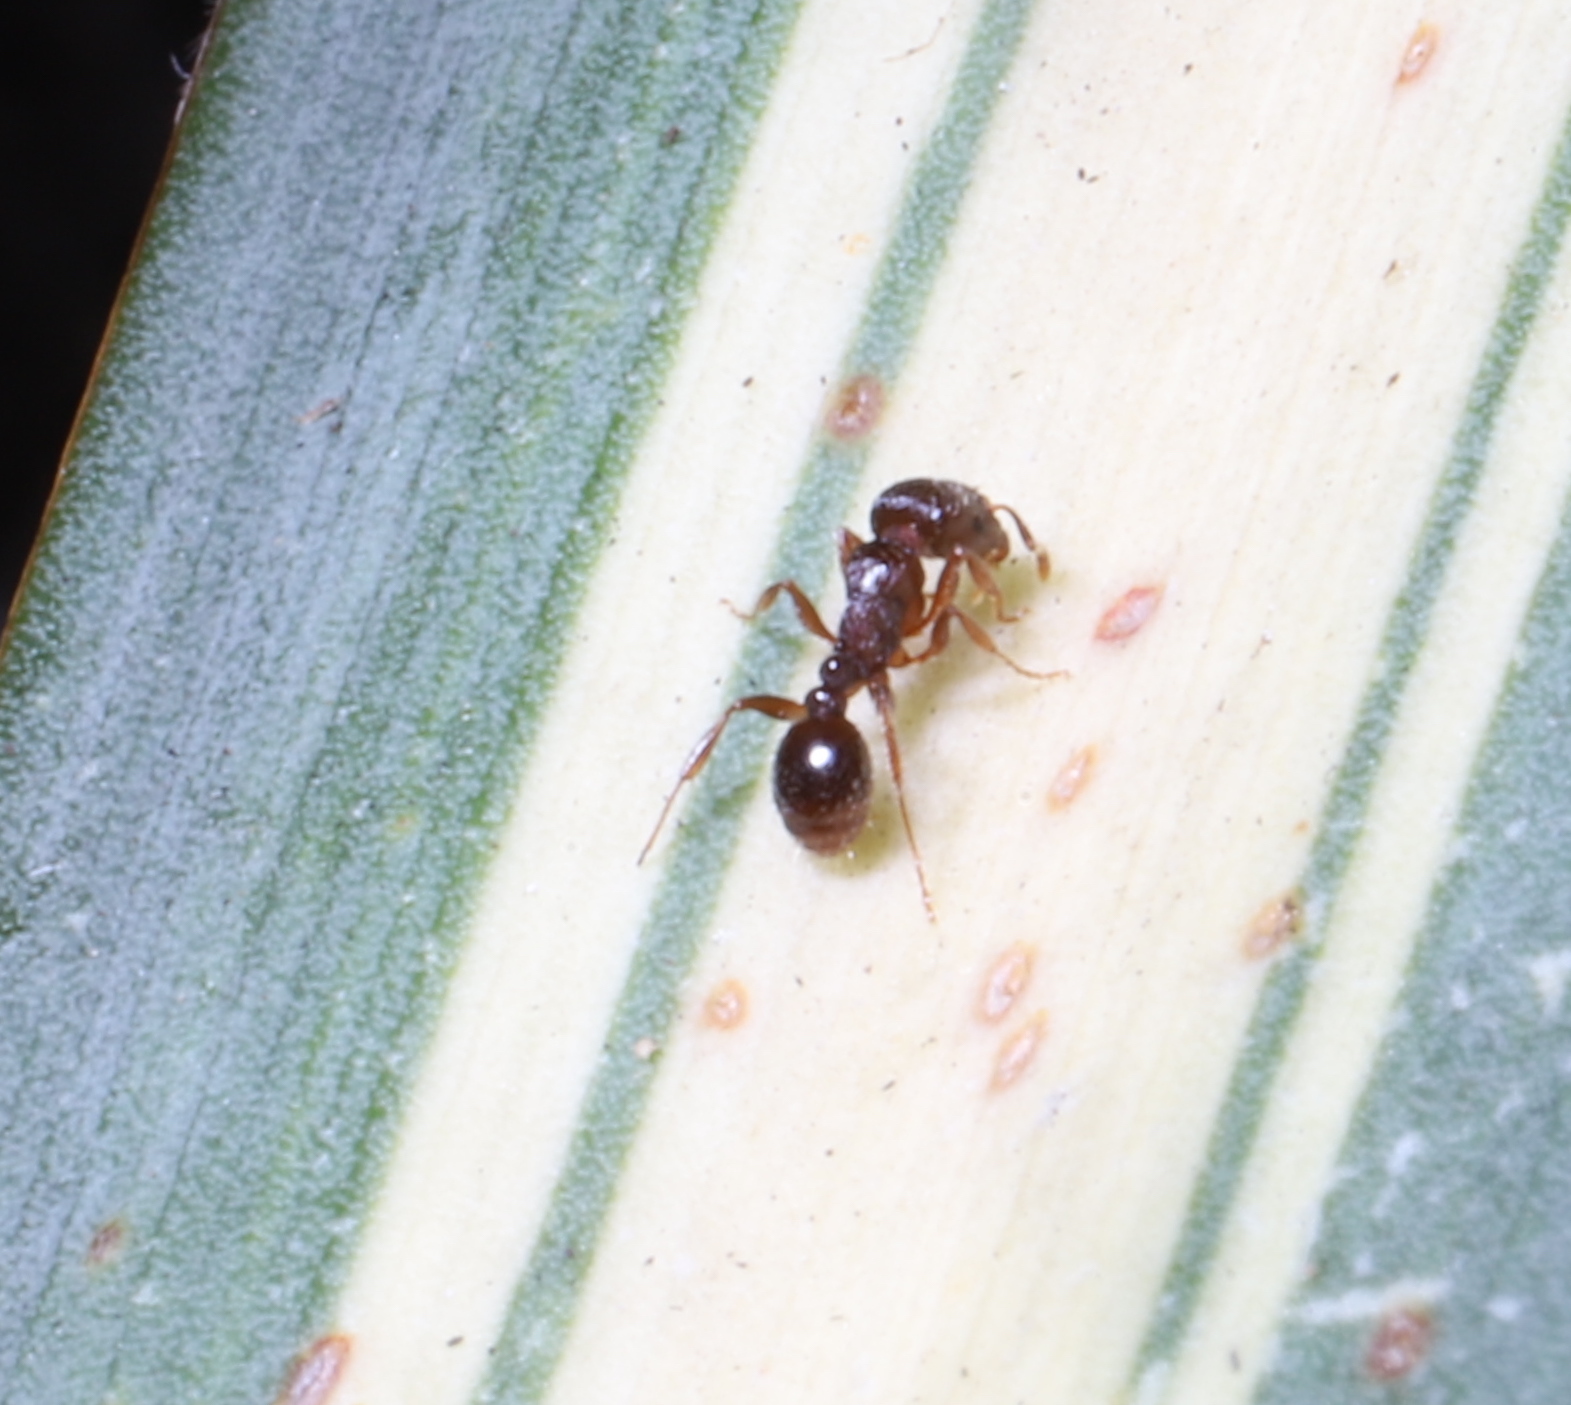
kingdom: Animalia
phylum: Arthropoda
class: Insecta
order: Hymenoptera
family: Formicidae
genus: Tetramorium
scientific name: Tetramorium immigrans
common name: Pavement ant
